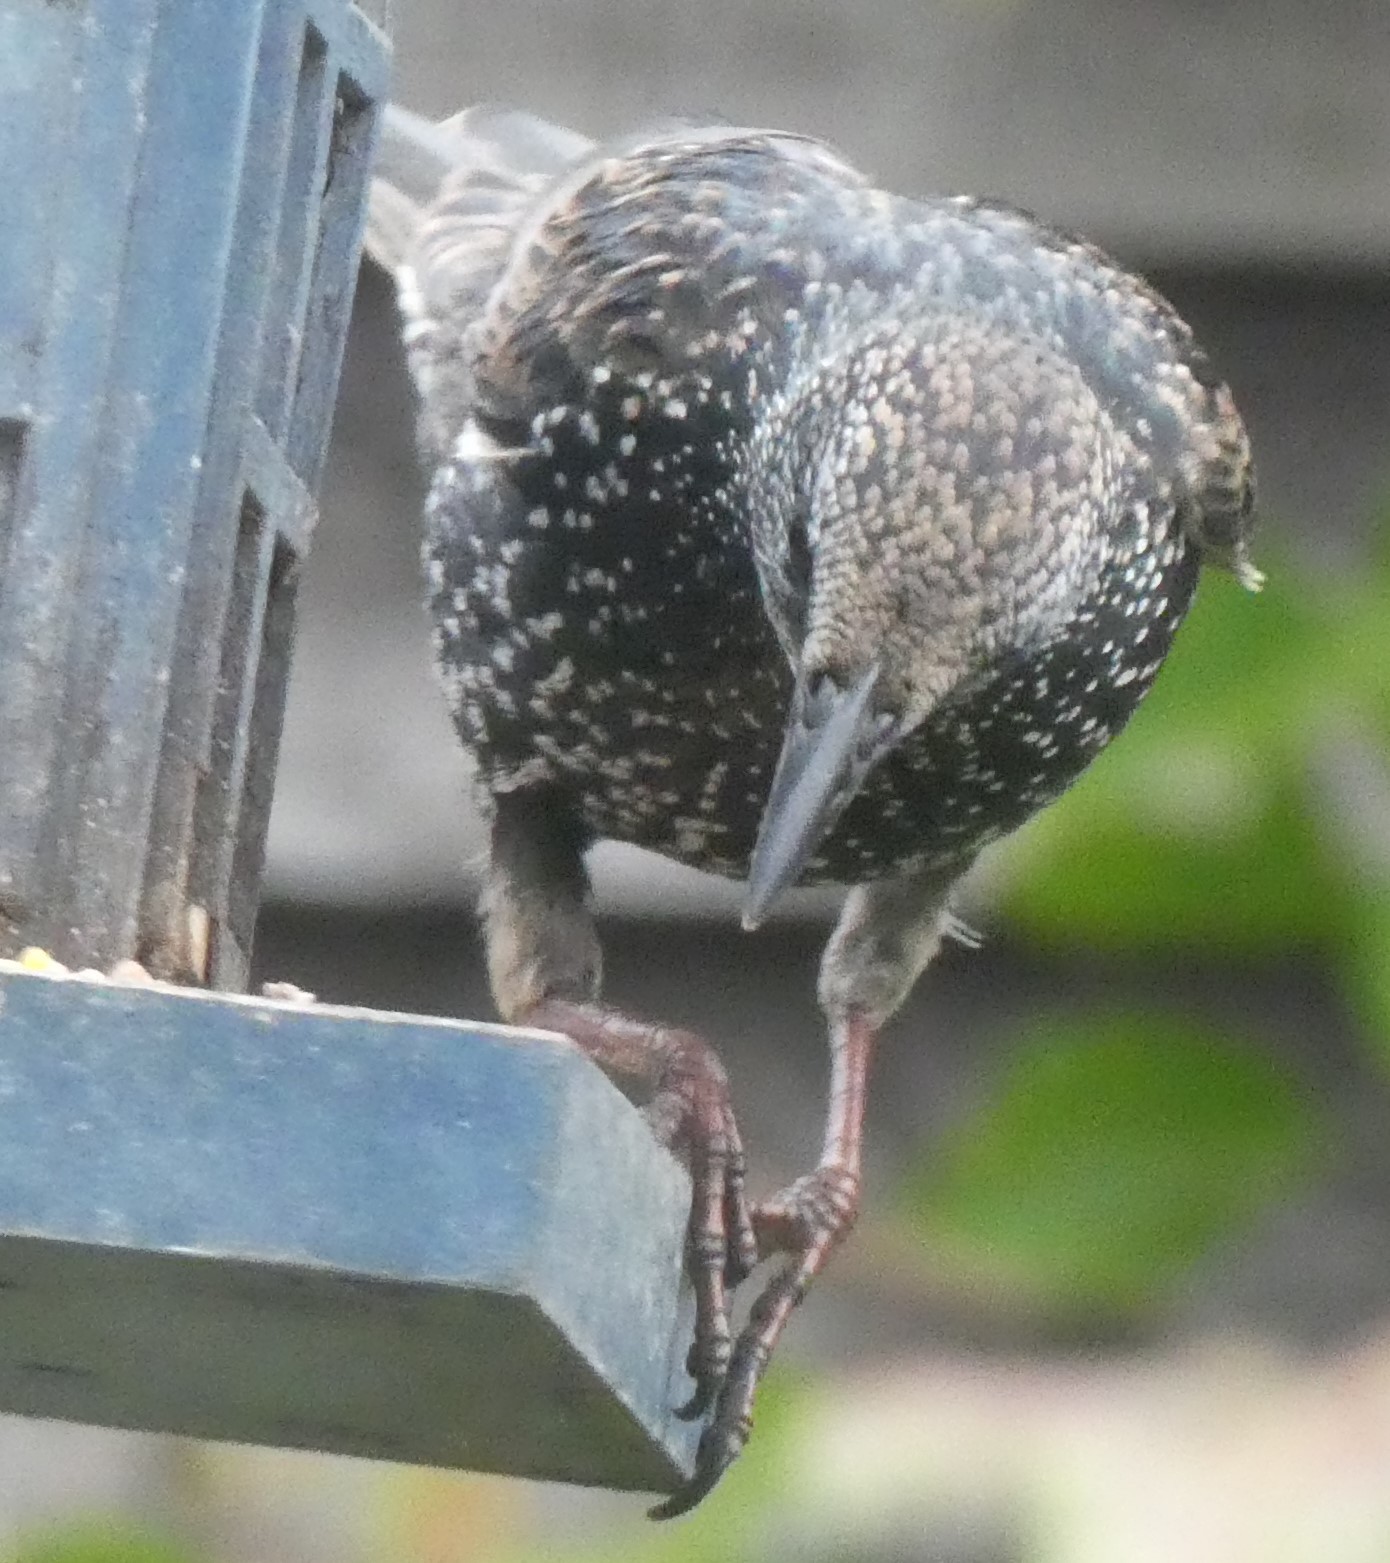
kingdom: Animalia
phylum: Chordata
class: Aves
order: Passeriformes
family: Sturnidae
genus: Sturnus
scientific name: Sturnus vulgaris
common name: Common starling
